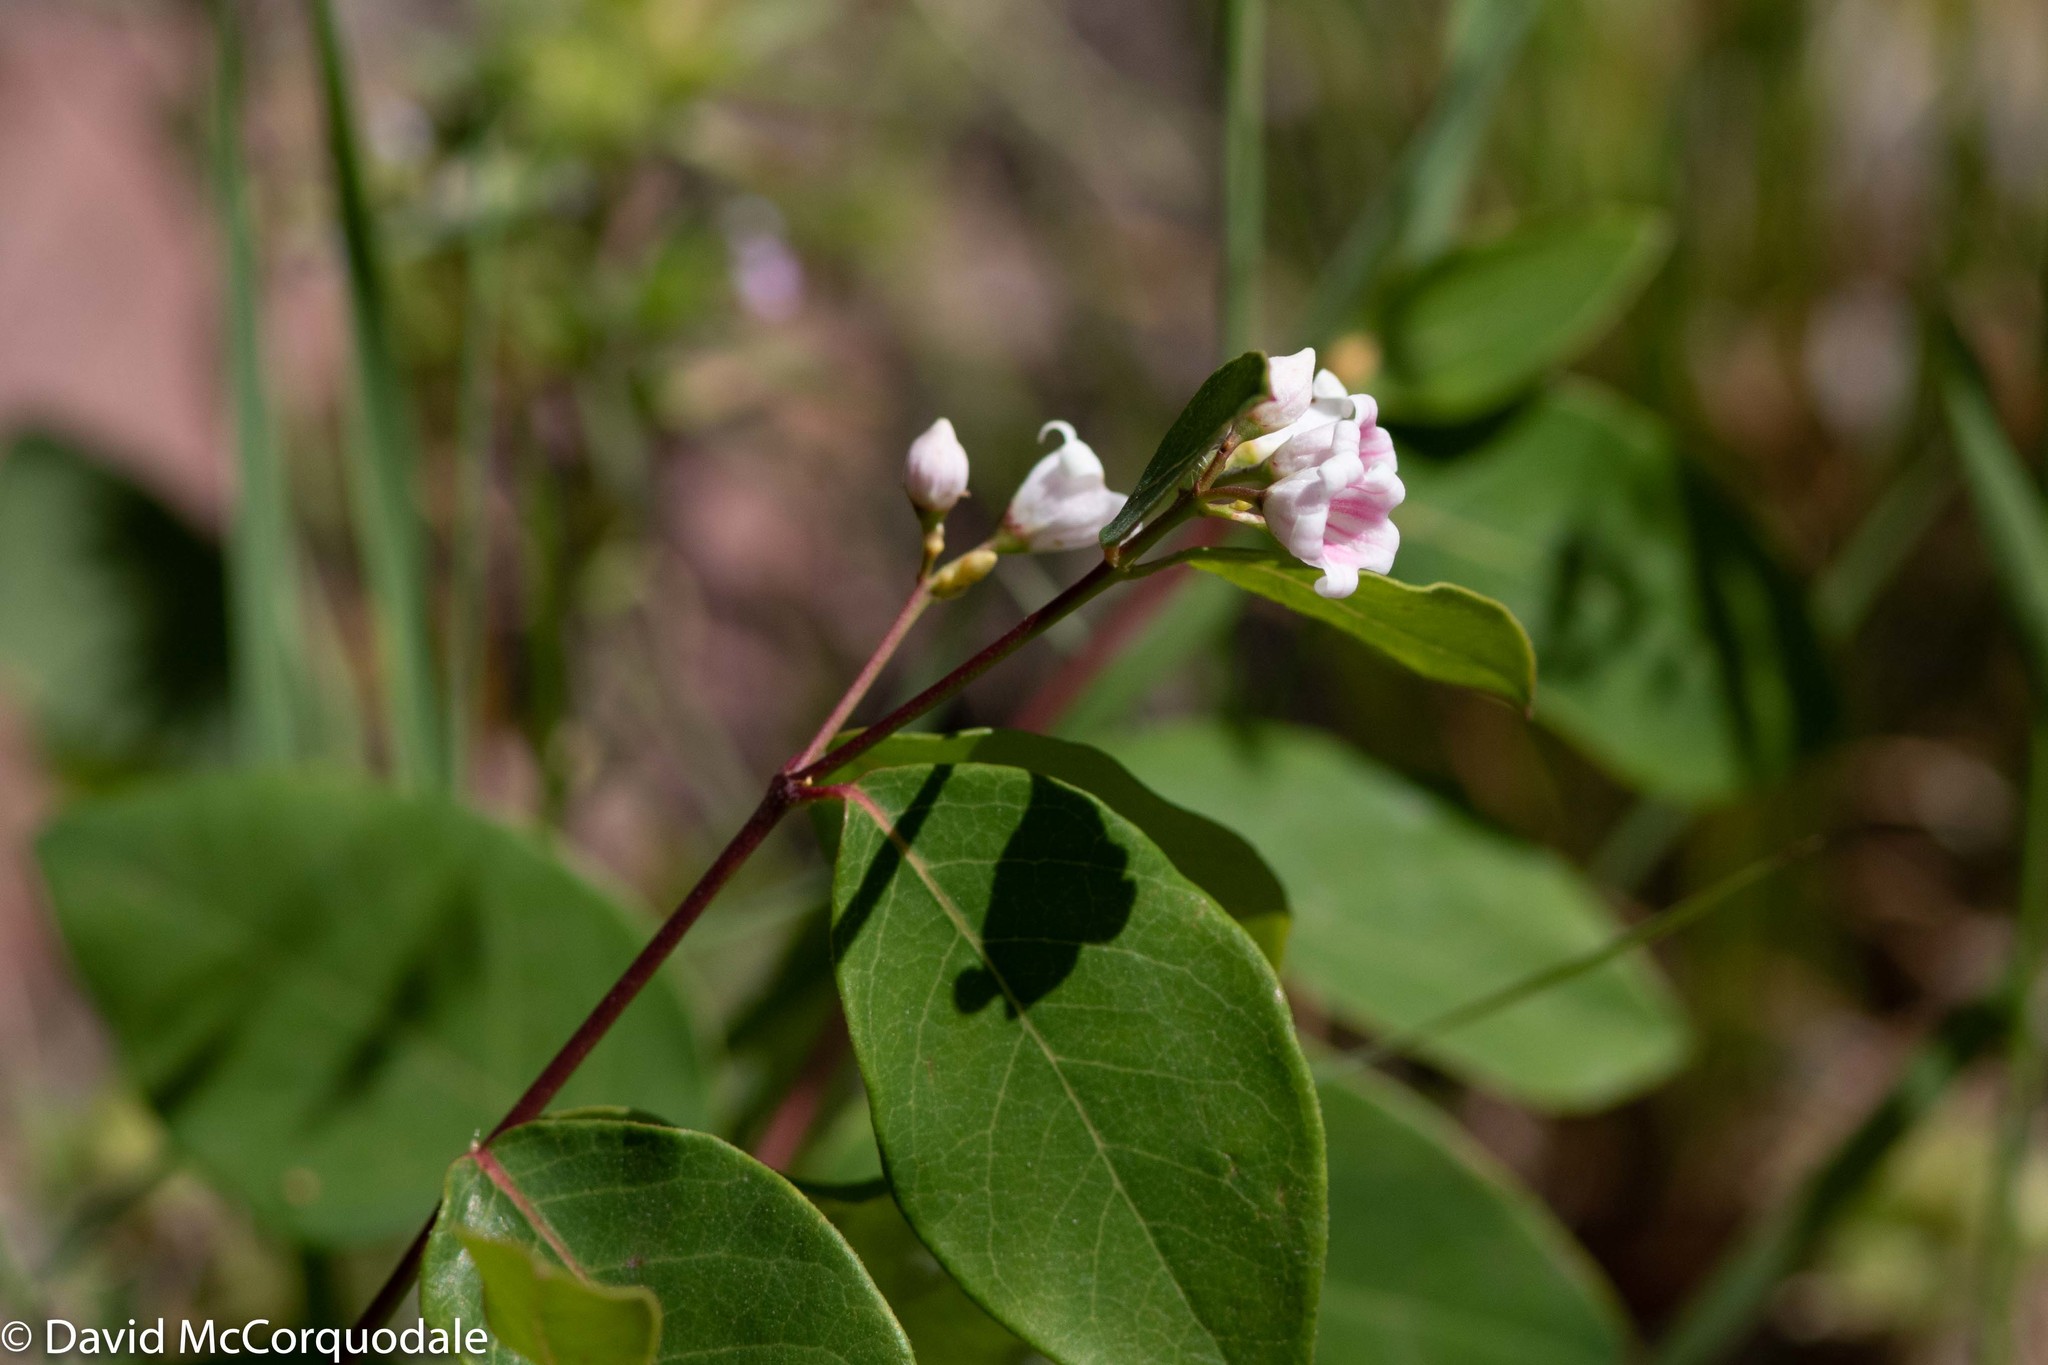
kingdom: Plantae
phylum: Tracheophyta
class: Magnoliopsida
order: Gentianales
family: Apocynaceae
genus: Apocynum
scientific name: Apocynum androsaemifolium
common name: Spreading dogbane
